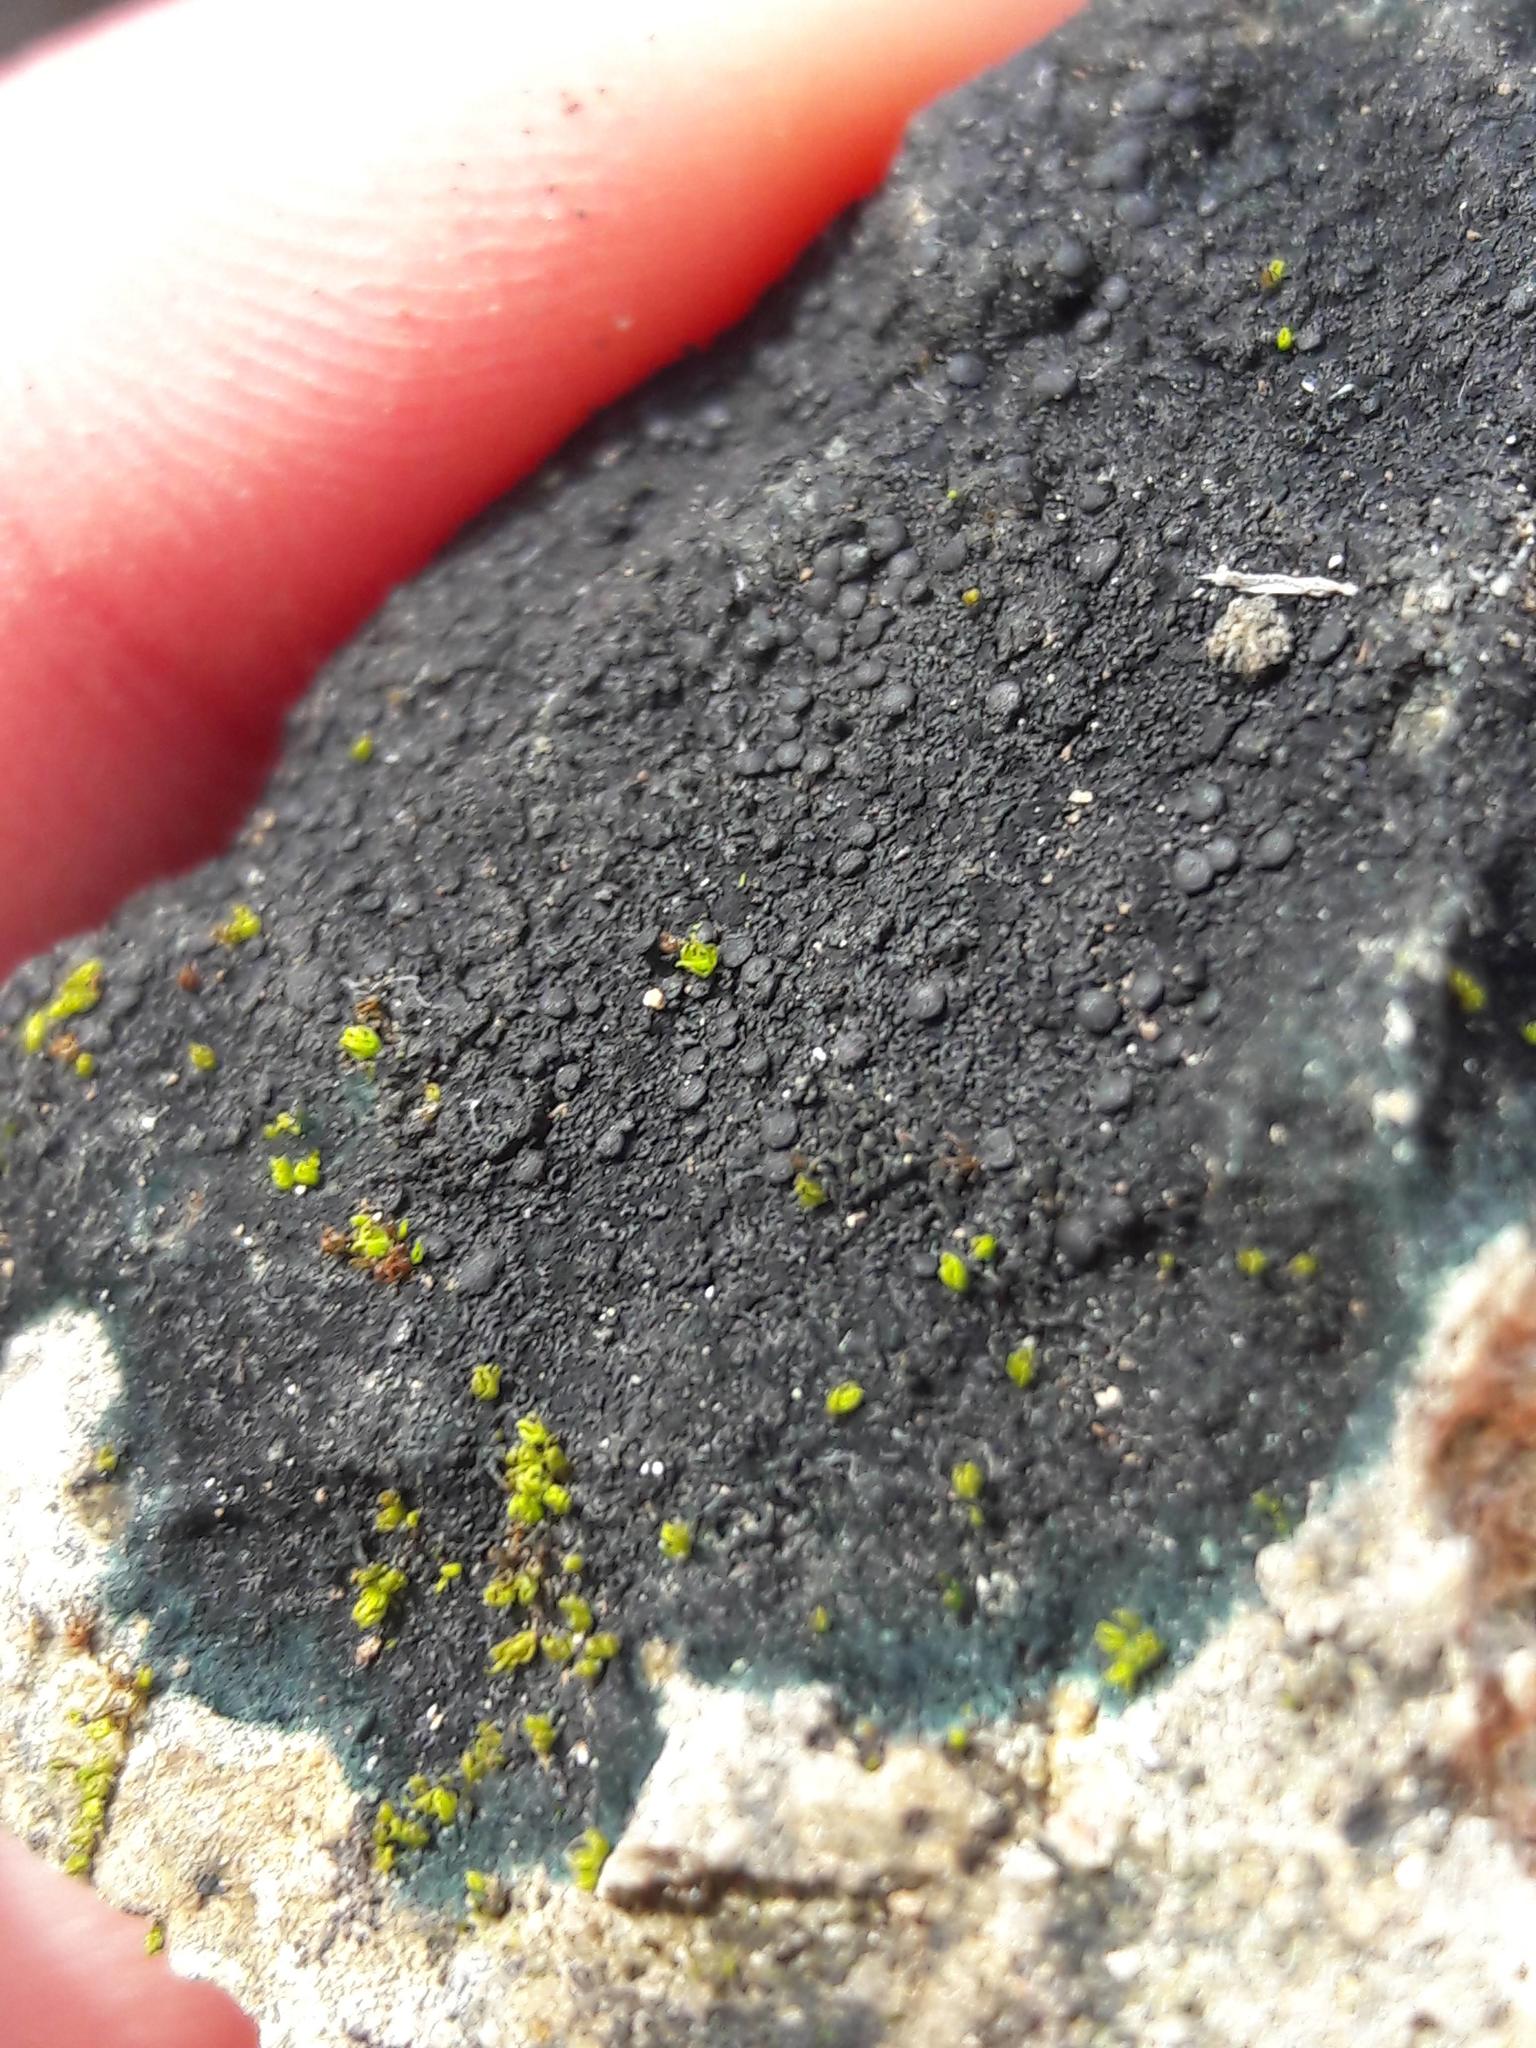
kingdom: Fungi
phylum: Ascomycota
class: Lecanoromycetes
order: Peltigerales
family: Placynthiaceae
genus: Placynthium
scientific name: Placynthium nigrum
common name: Blackthread lichen
